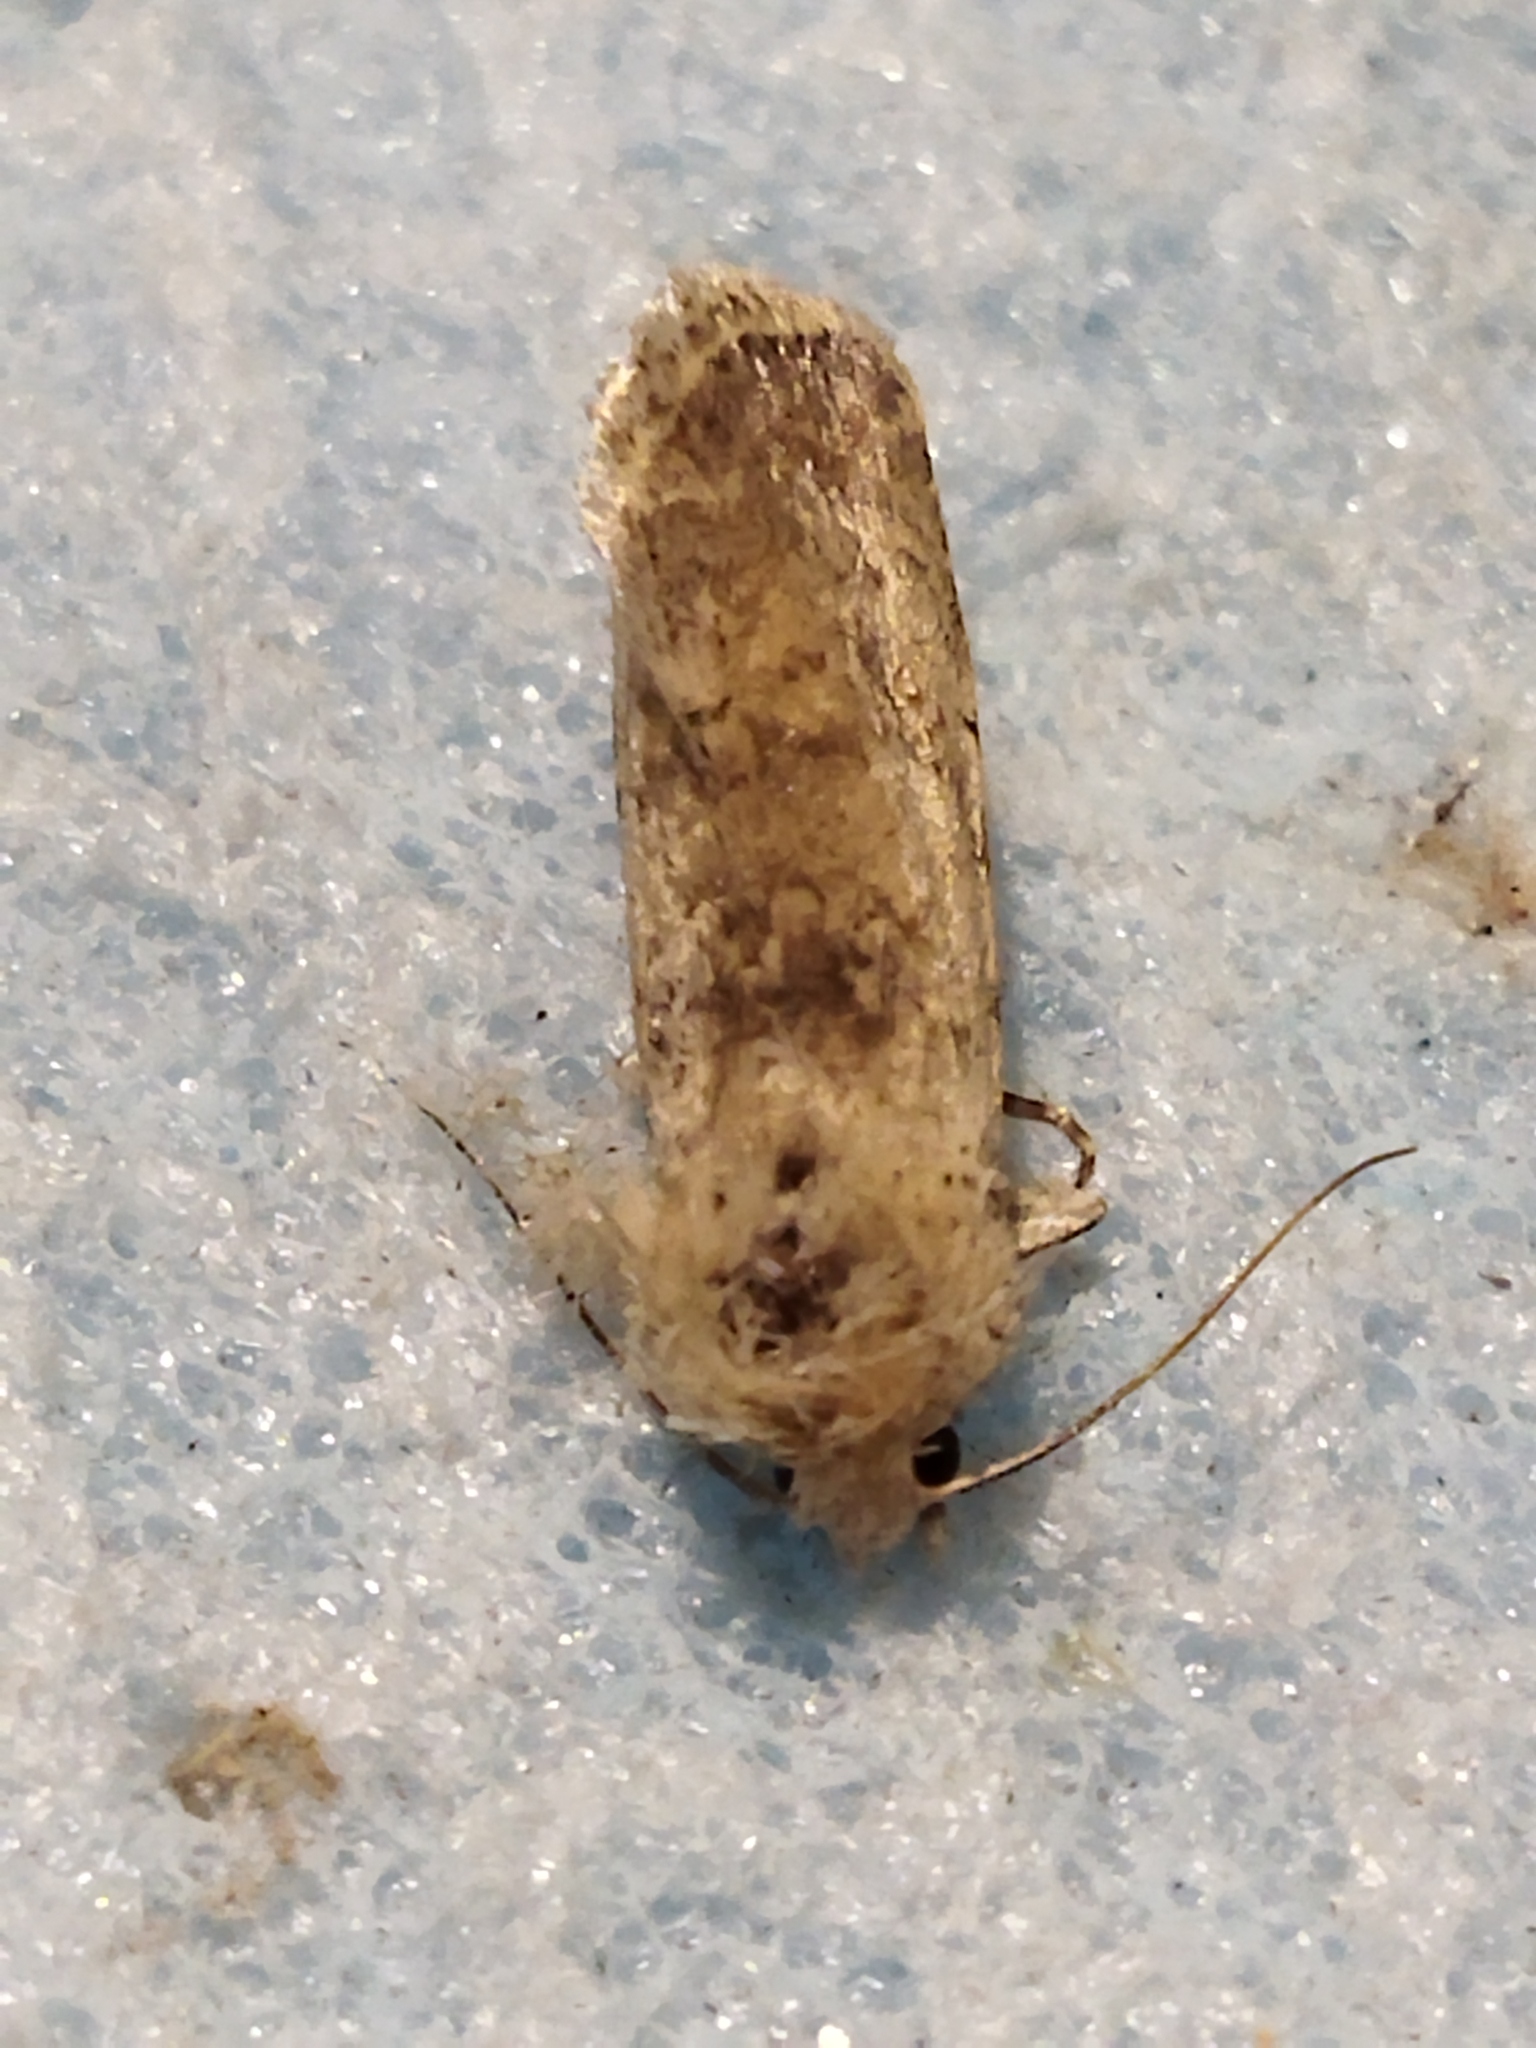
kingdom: Animalia
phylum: Arthropoda
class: Insecta
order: Lepidoptera
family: Noctuidae
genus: Caradrina
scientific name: Caradrina clavipalpis
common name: Pale mottled willow
